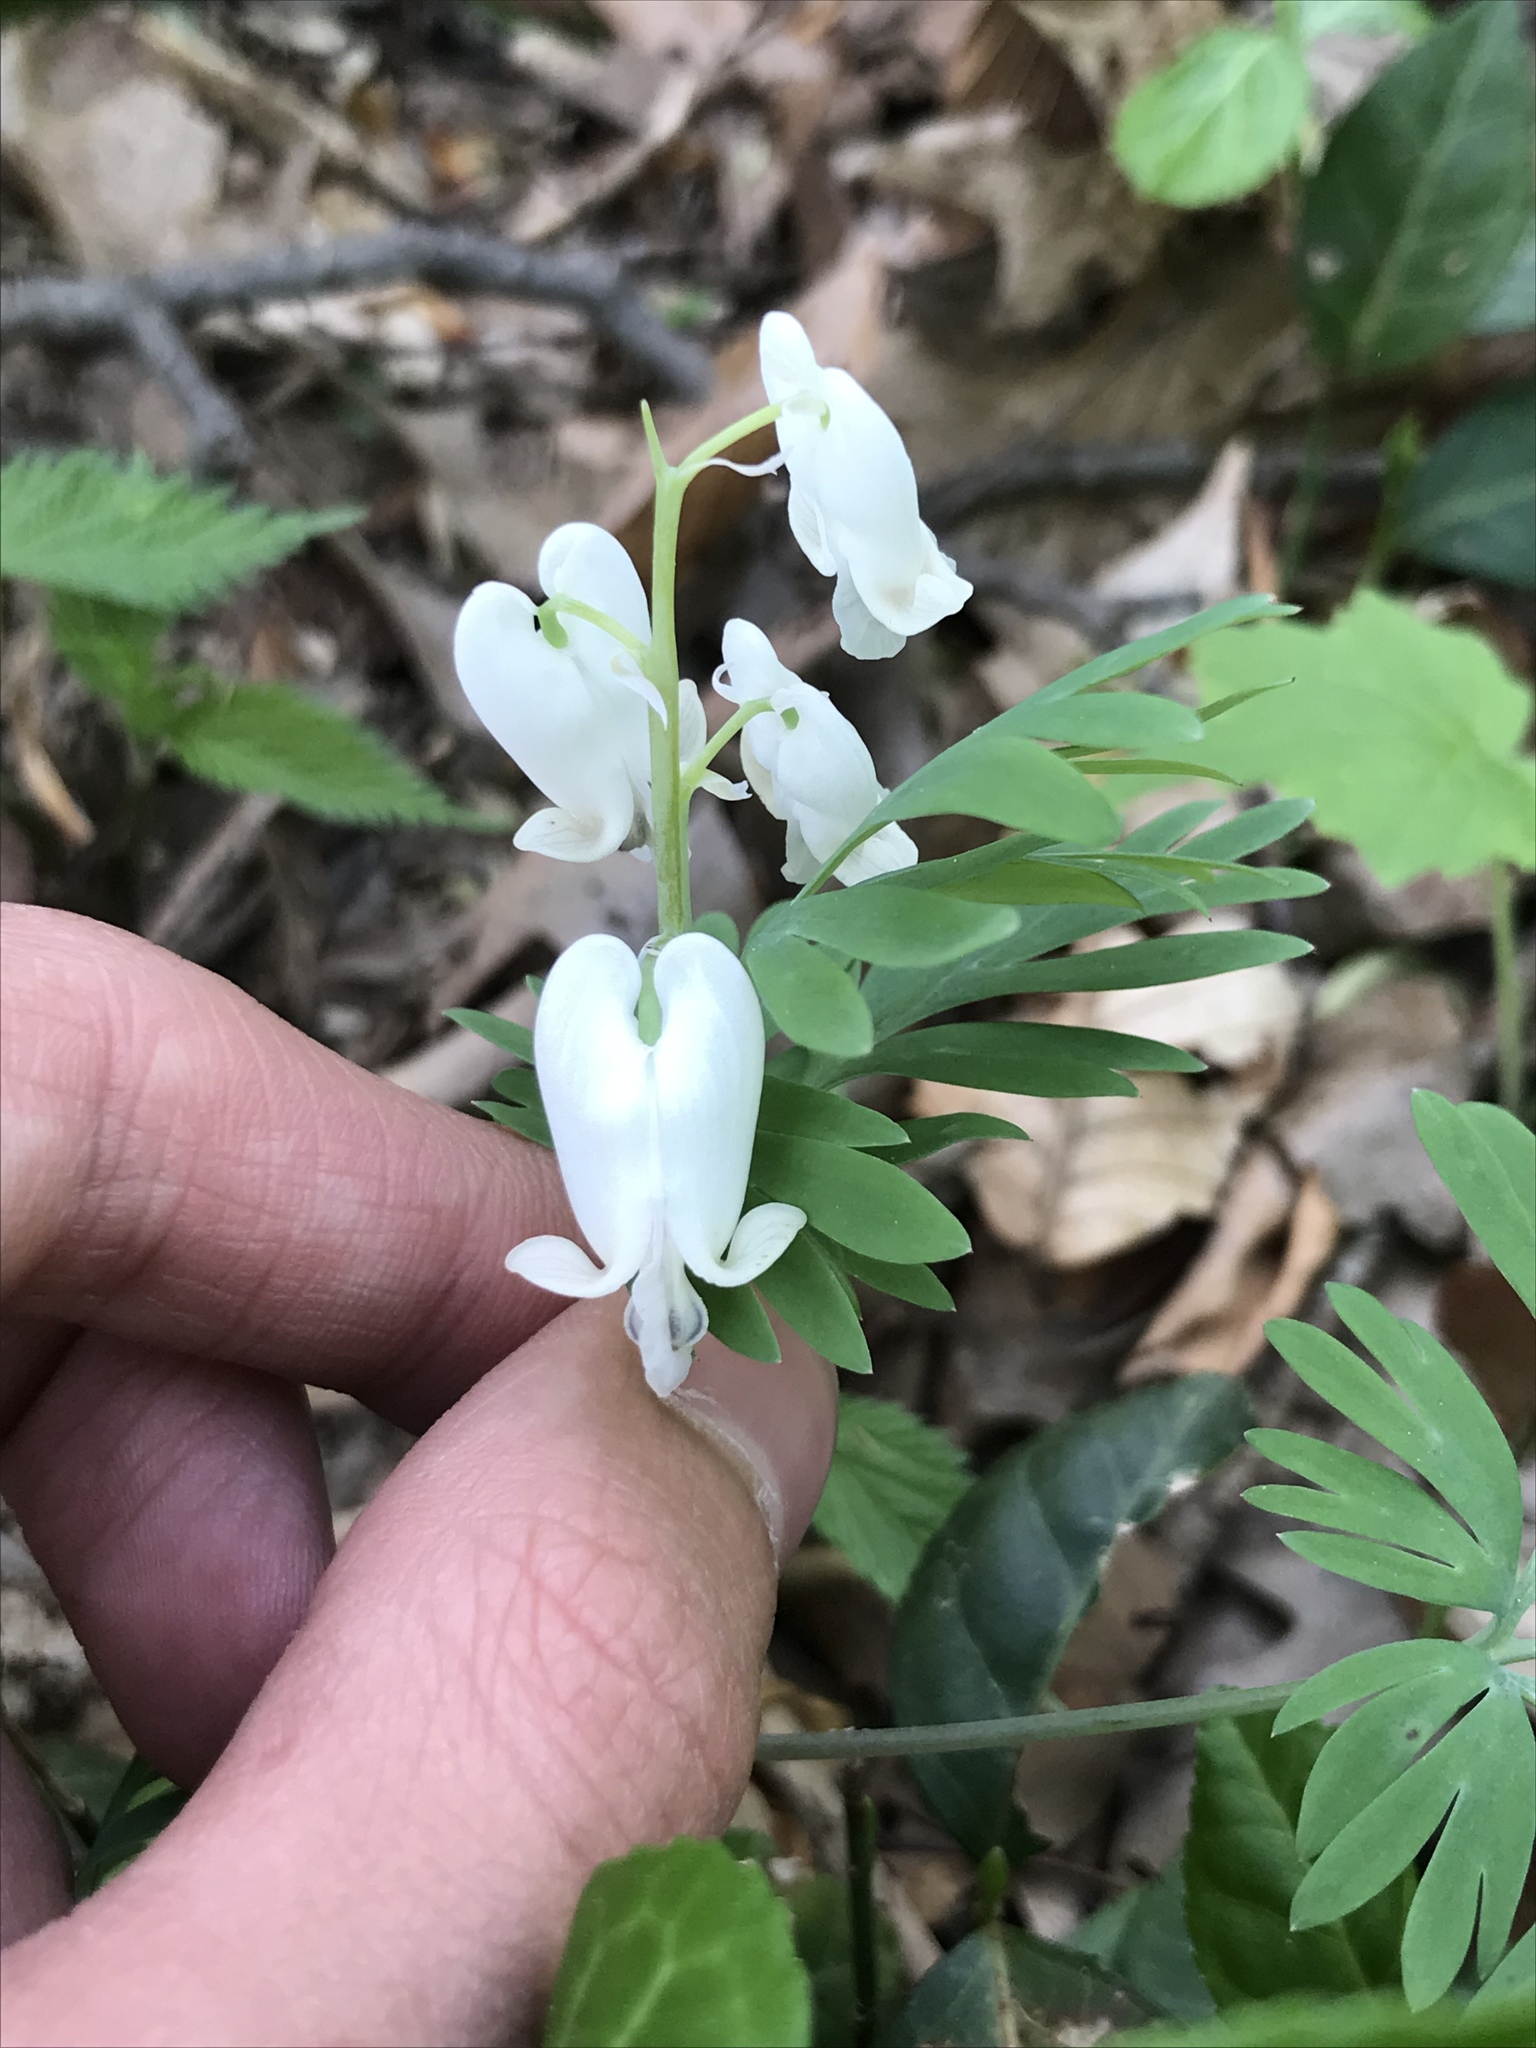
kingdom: Plantae
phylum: Tracheophyta
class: Magnoliopsida
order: Ranunculales
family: Papaveraceae
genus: Dicentra
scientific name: Dicentra canadensis
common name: Squirrel-corn
